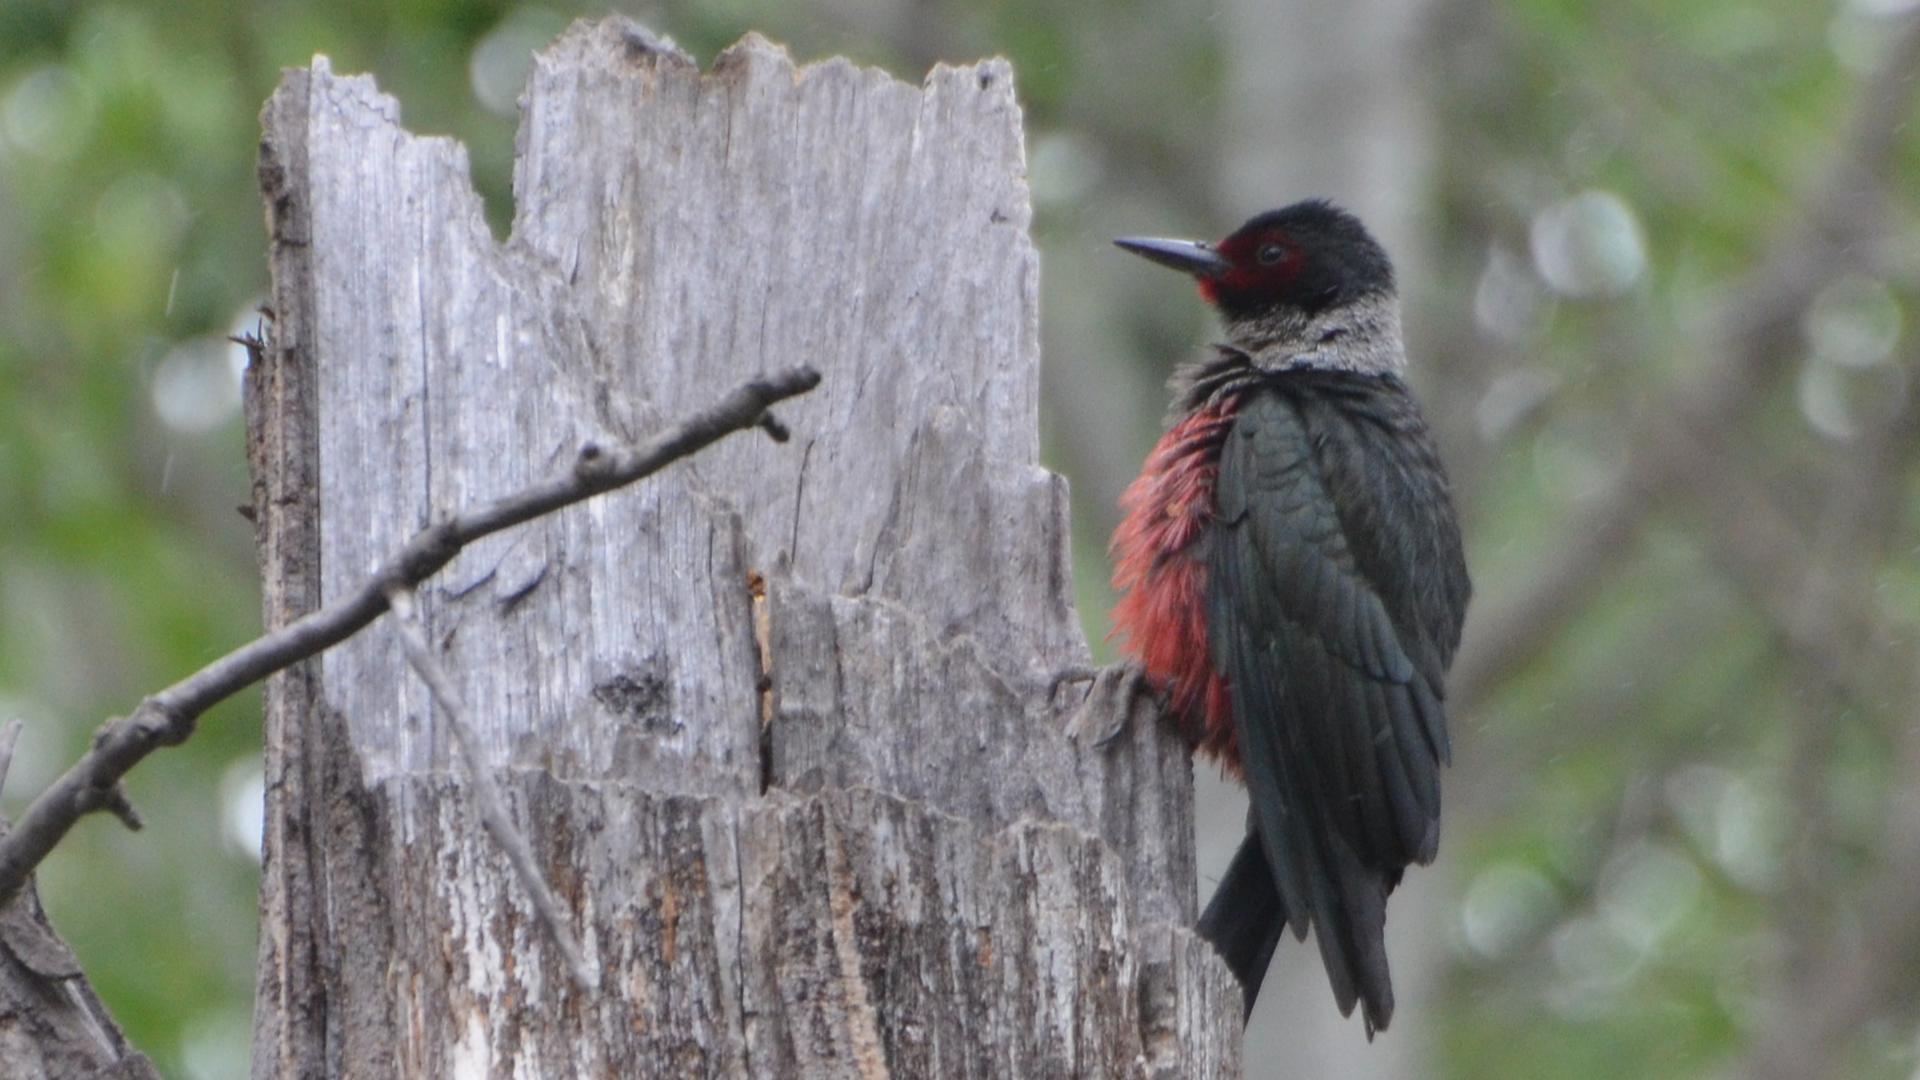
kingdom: Animalia
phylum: Chordata
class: Aves
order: Piciformes
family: Picidae
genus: Melanerpes
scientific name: Melanerpes lewis
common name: Lewis's woodpecker
